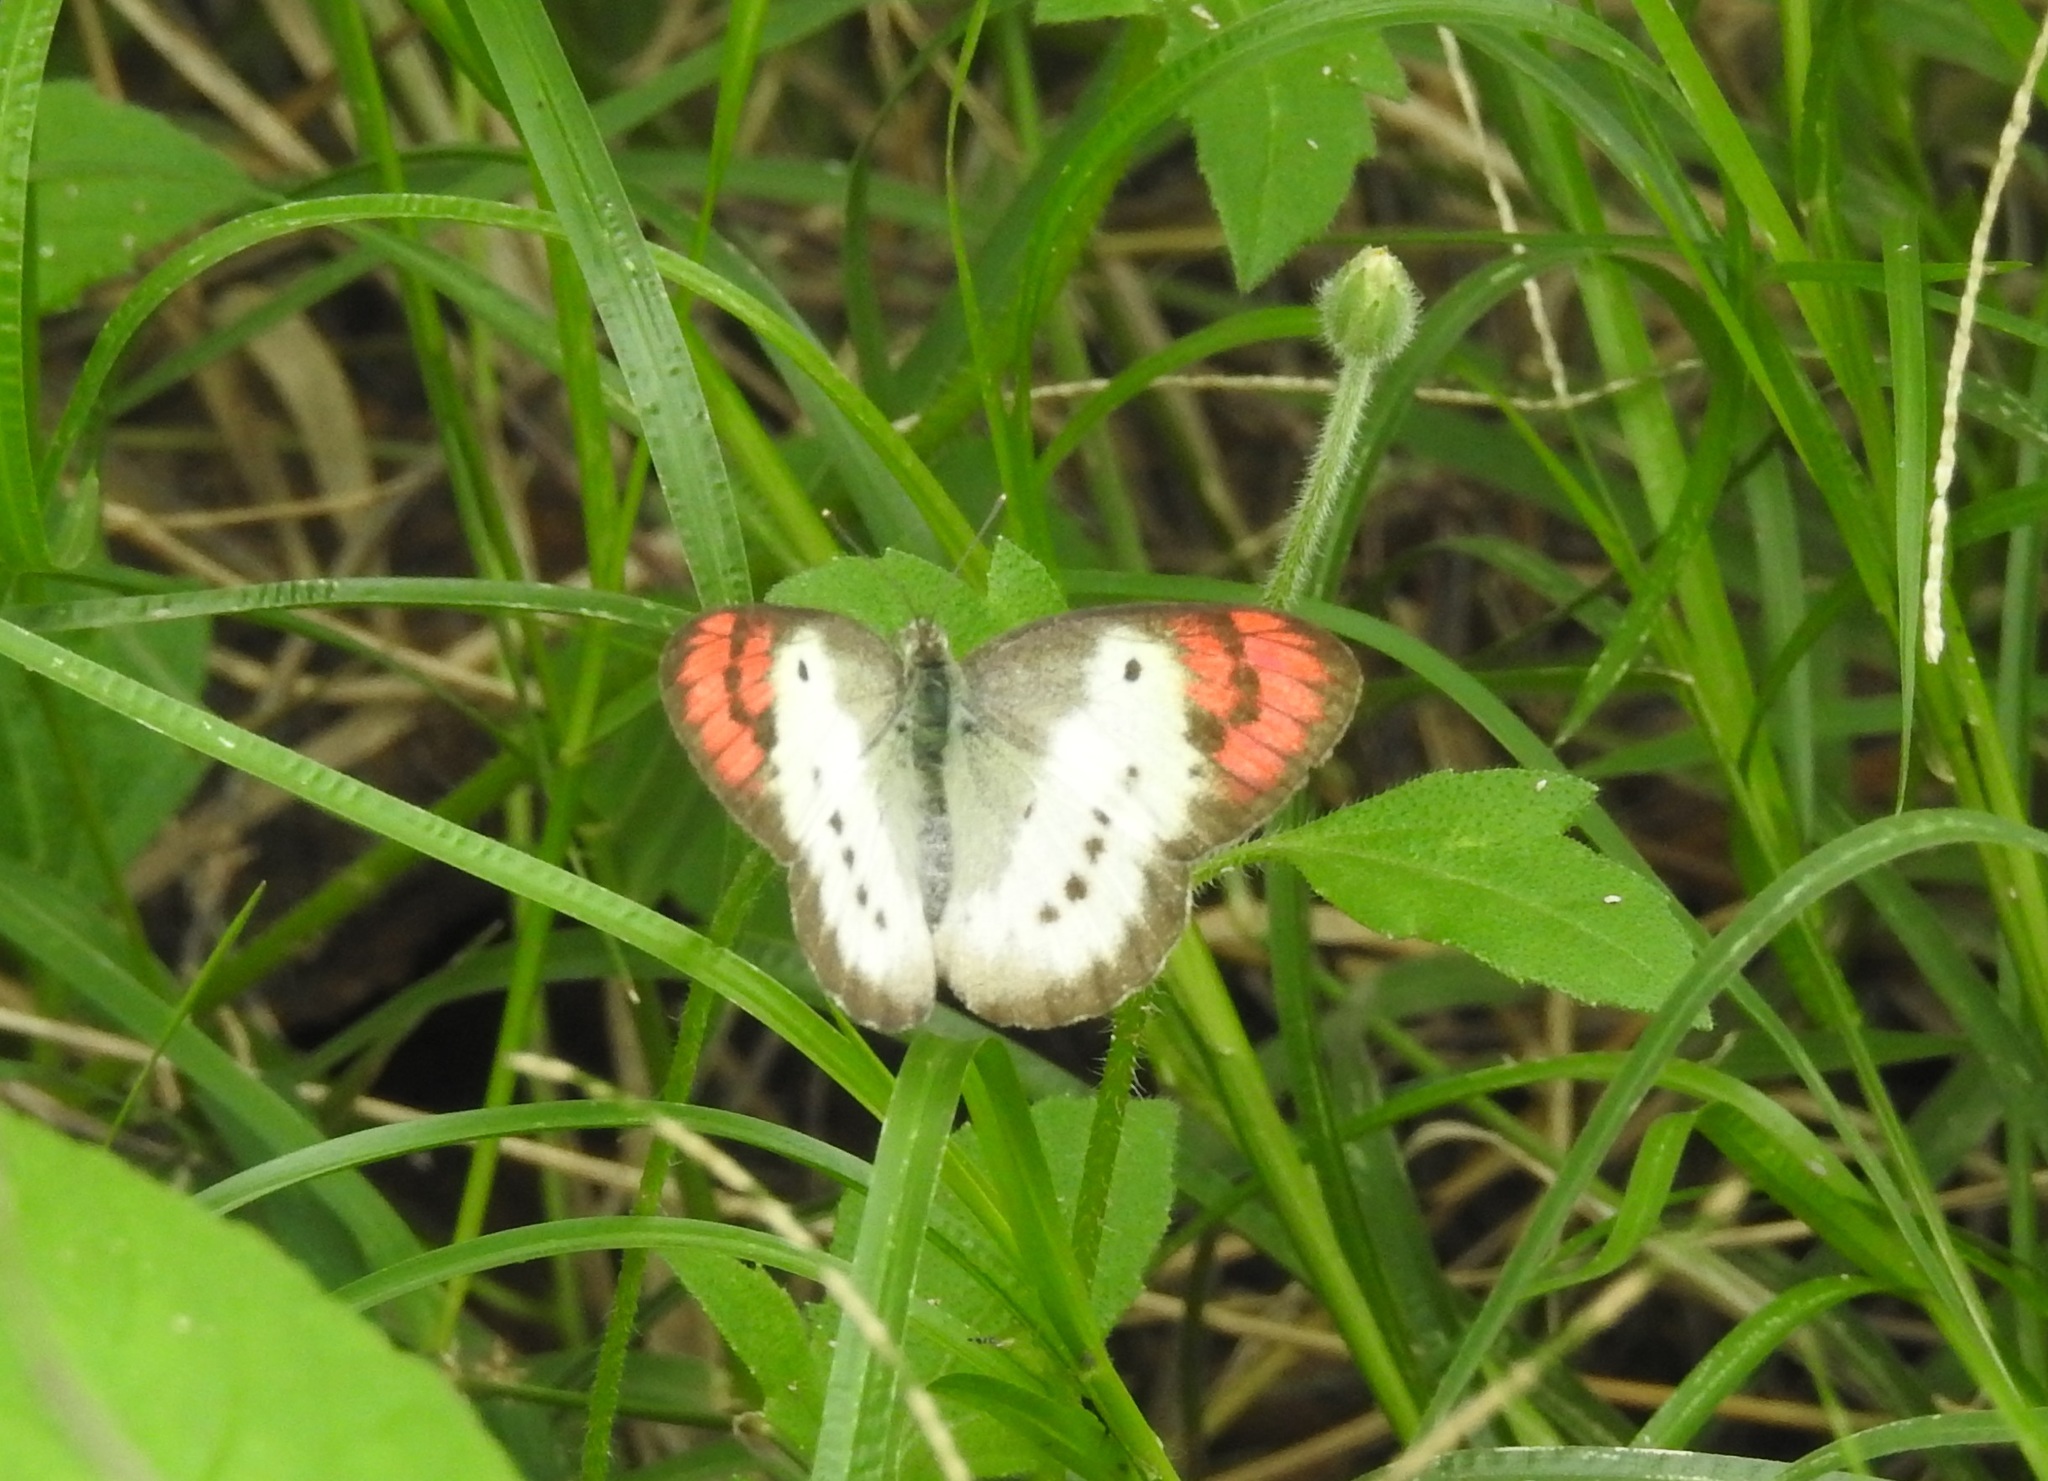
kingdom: Animalia
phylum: Arthropoda
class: Insecta
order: Lepidoptera
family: Pieridae
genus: Colotis
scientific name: Colotis danae
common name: Crimson tip
